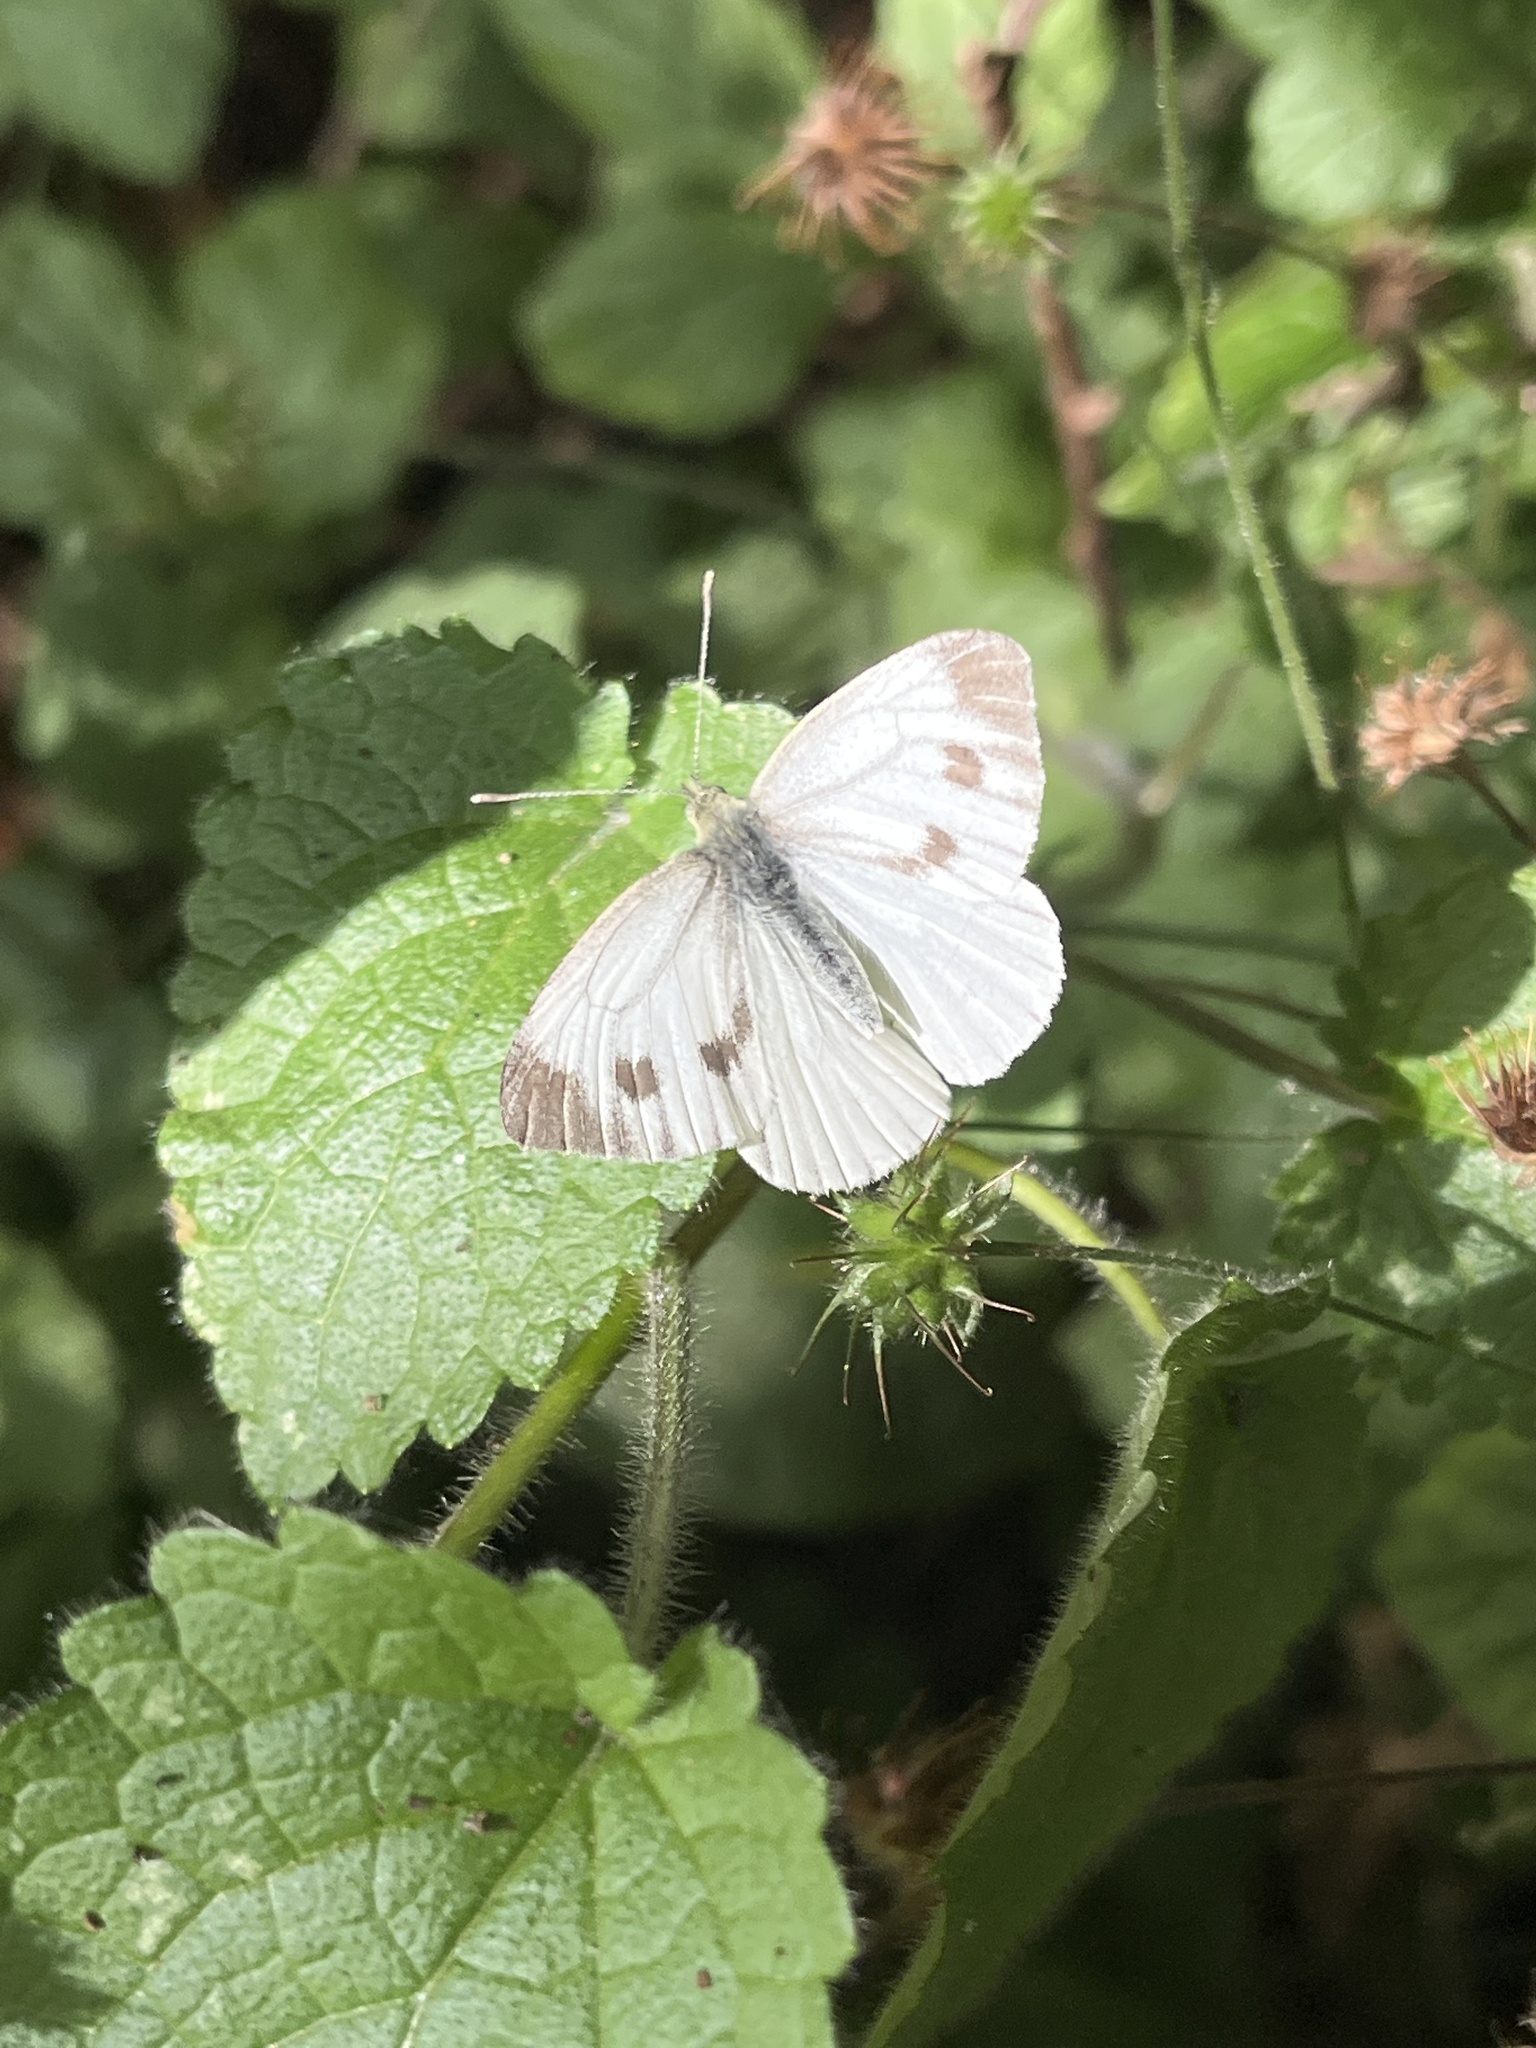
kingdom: Animalia
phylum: Arthropoda
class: Insecta
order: Lepidoptera
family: Pieridae
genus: Pieris
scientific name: Pieris napi
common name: Green-veined white
